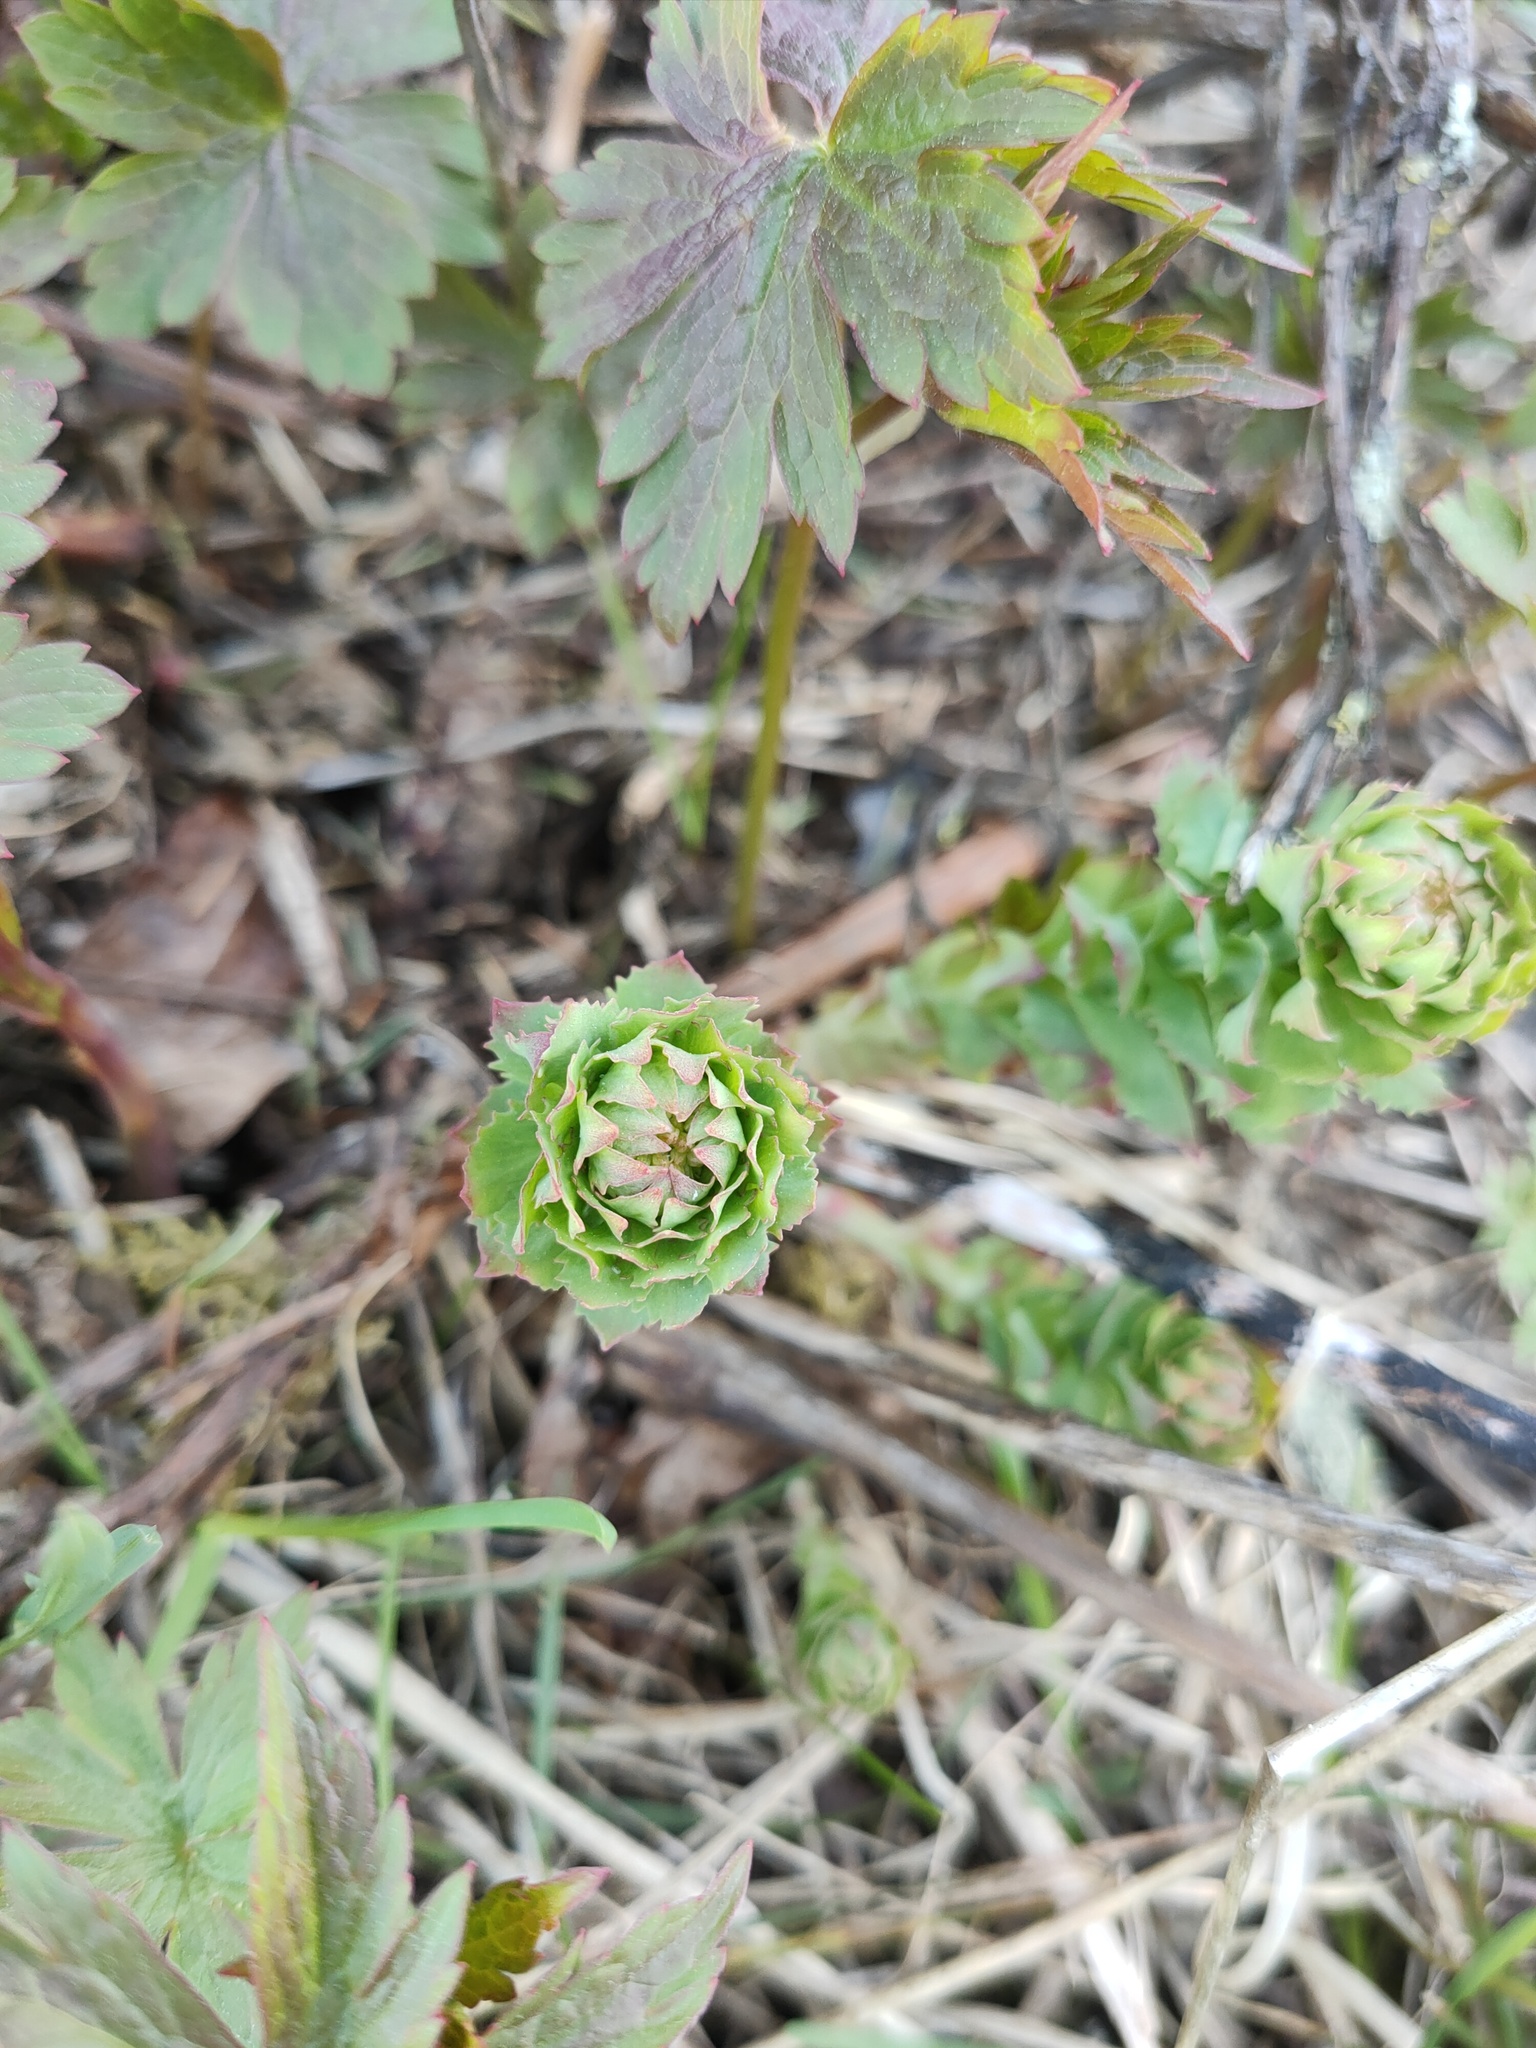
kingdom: Plantae
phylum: Tracheophyta
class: Magnoliopsida
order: Saxifragales
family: Crassulaceae
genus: Rhodiola
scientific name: Rhodiola rosea
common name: Roseroot
